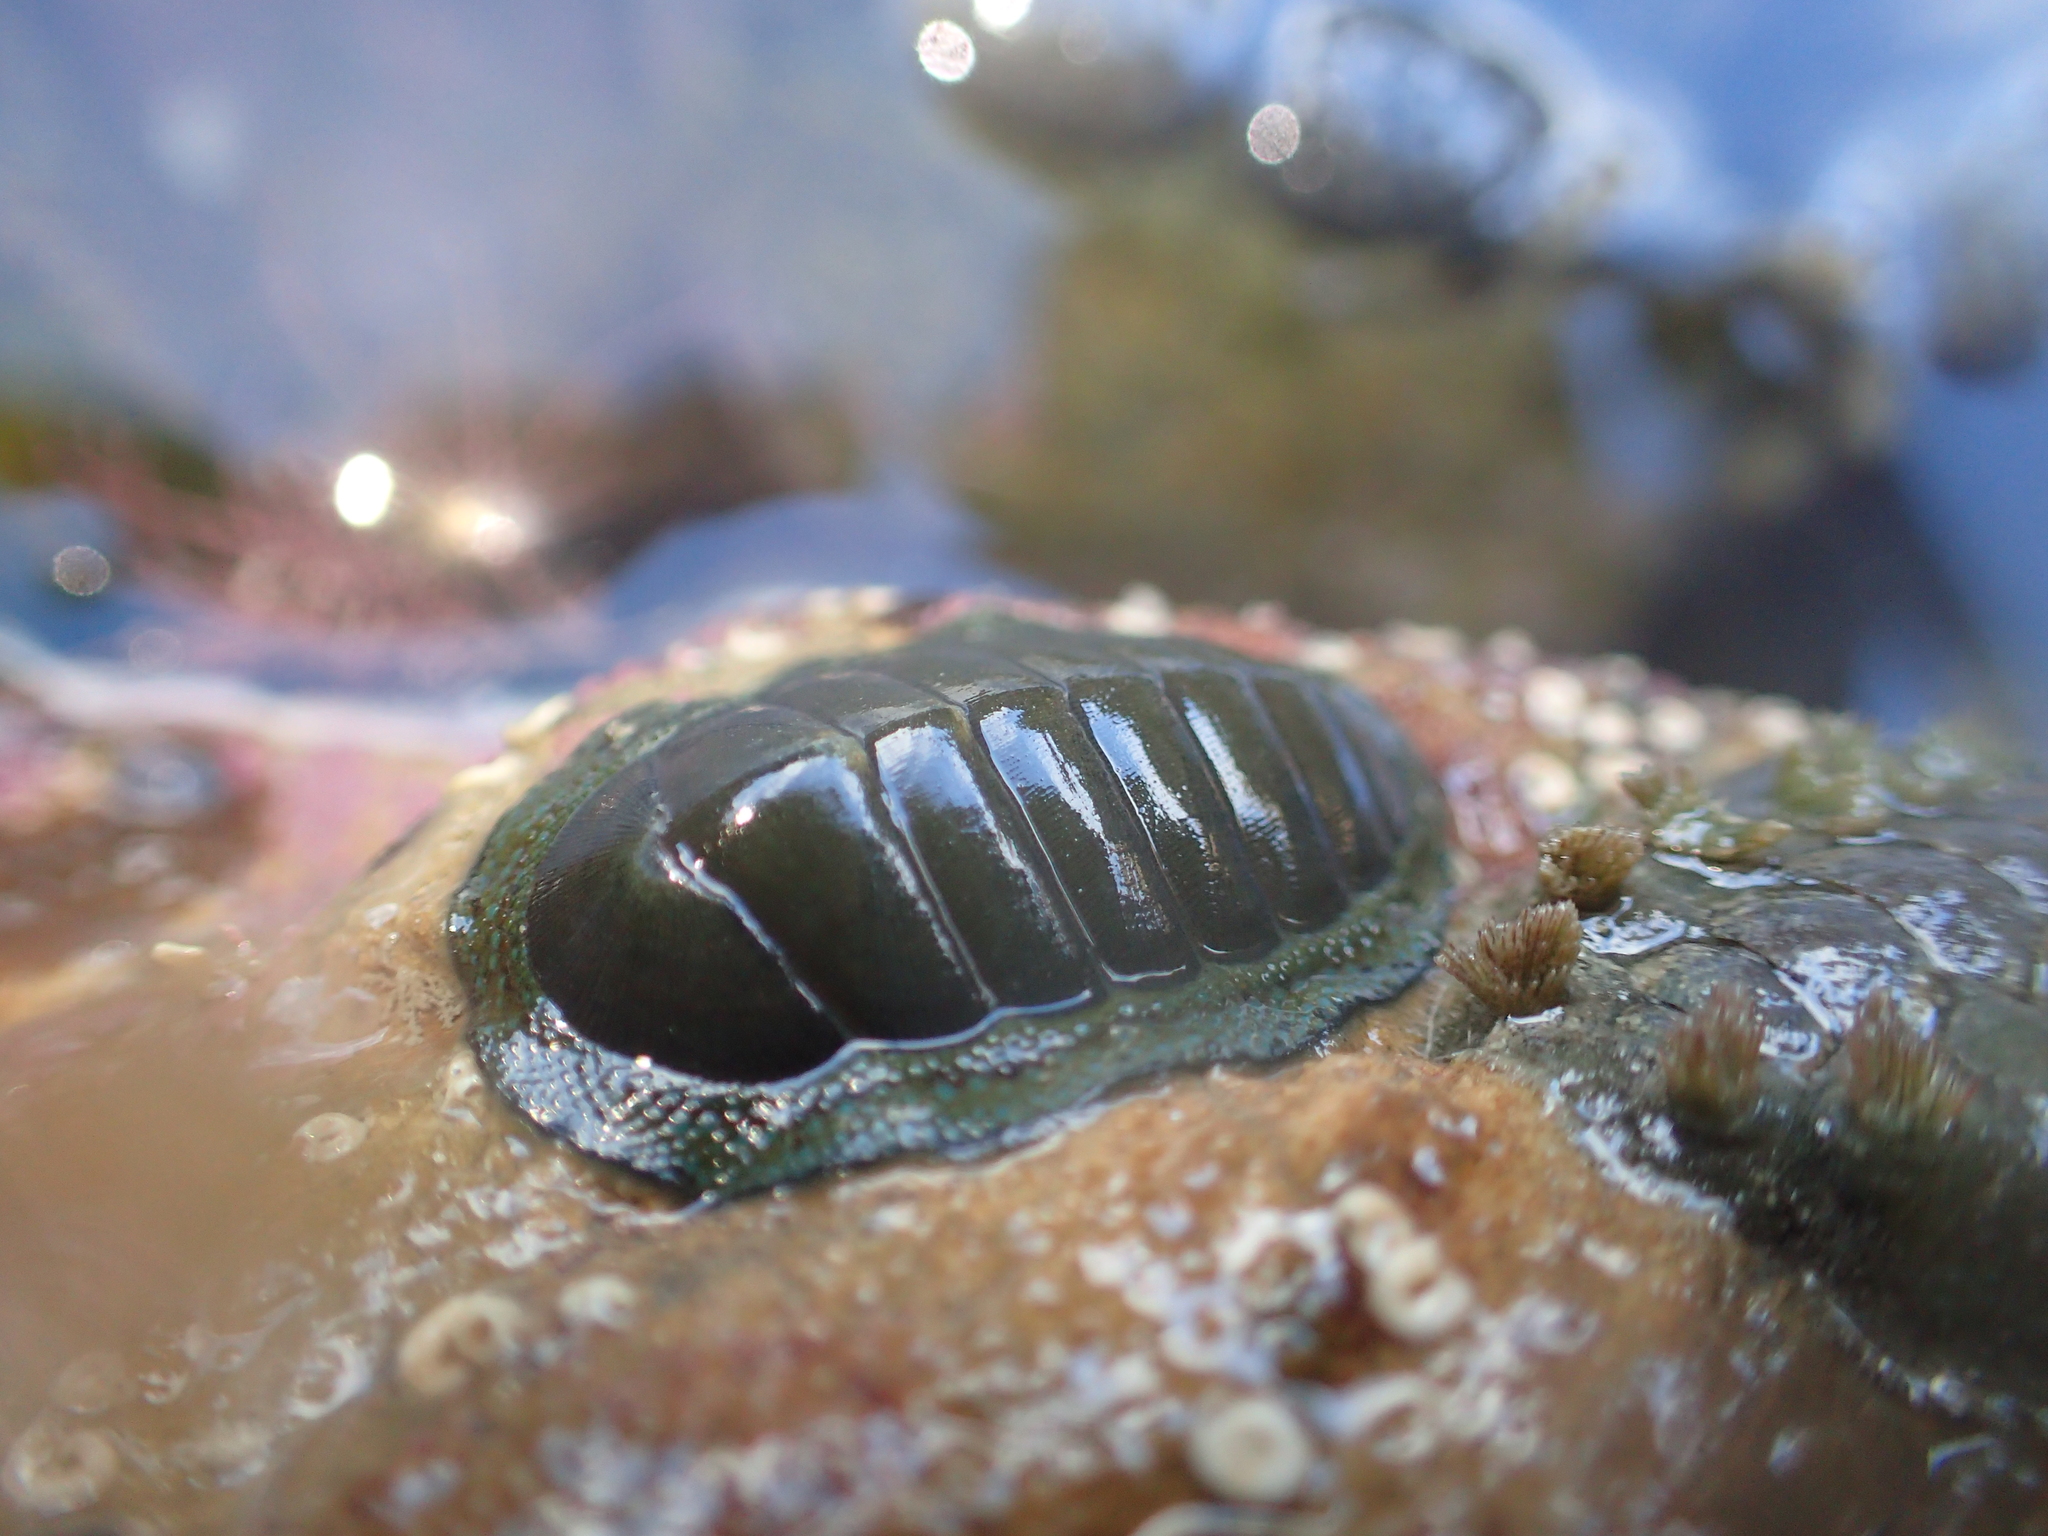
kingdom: Animalia
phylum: Mollusca
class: Polyplacophora
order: Chitonida
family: Chitonidae
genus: Chiton
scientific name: Chiton glaucus
